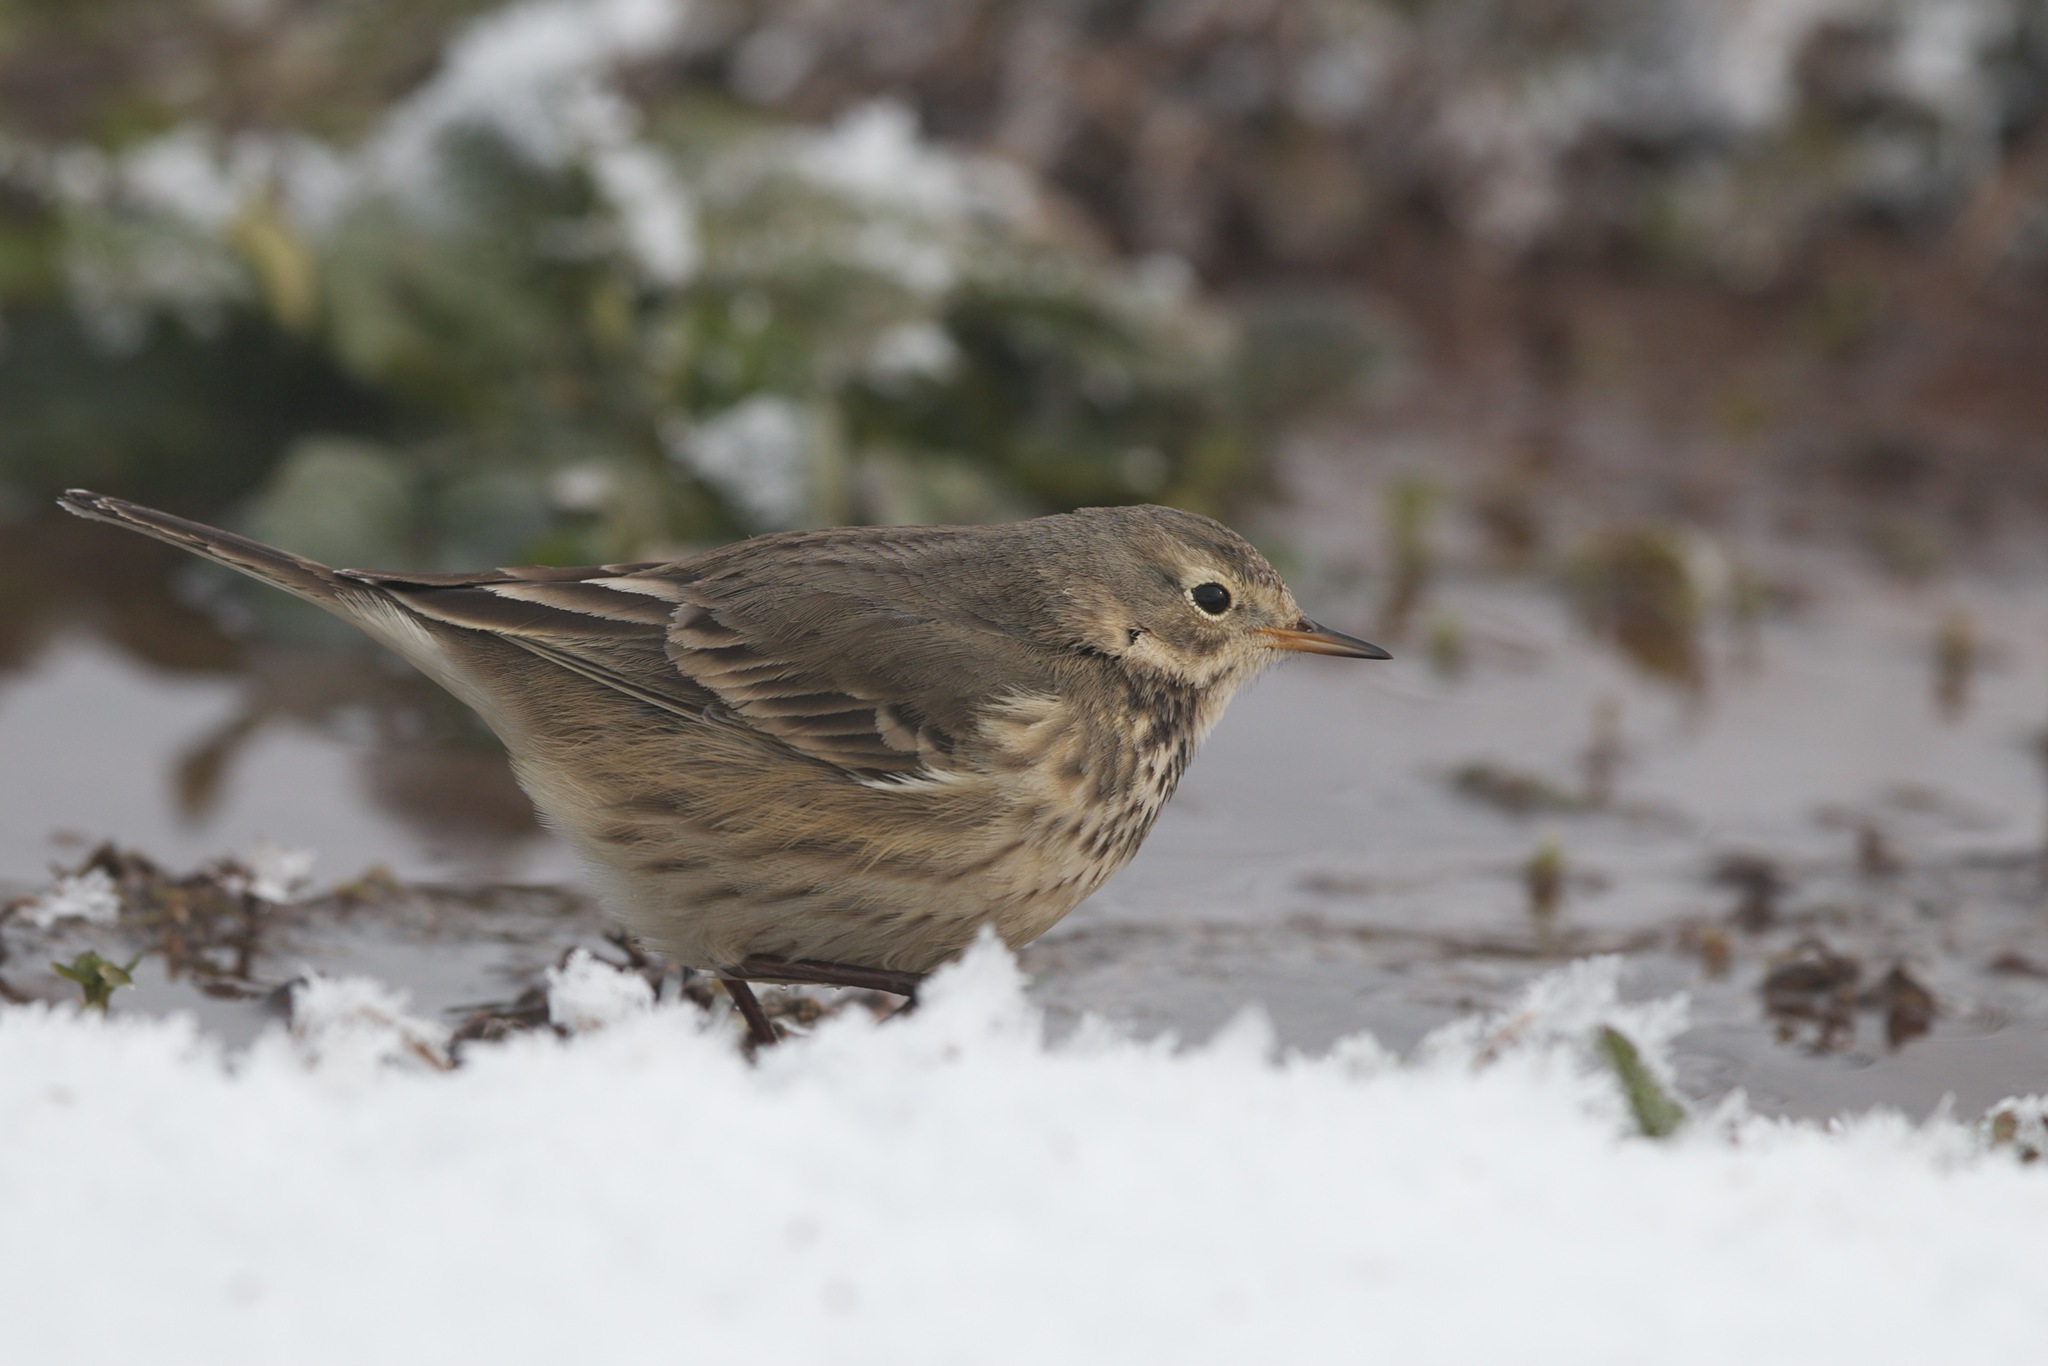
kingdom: Animalia
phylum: Chordata
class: Aves
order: Passeriformes
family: Motacillidae
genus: Anthus
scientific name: Anthus rubescens
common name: Buff-bellied pipit
